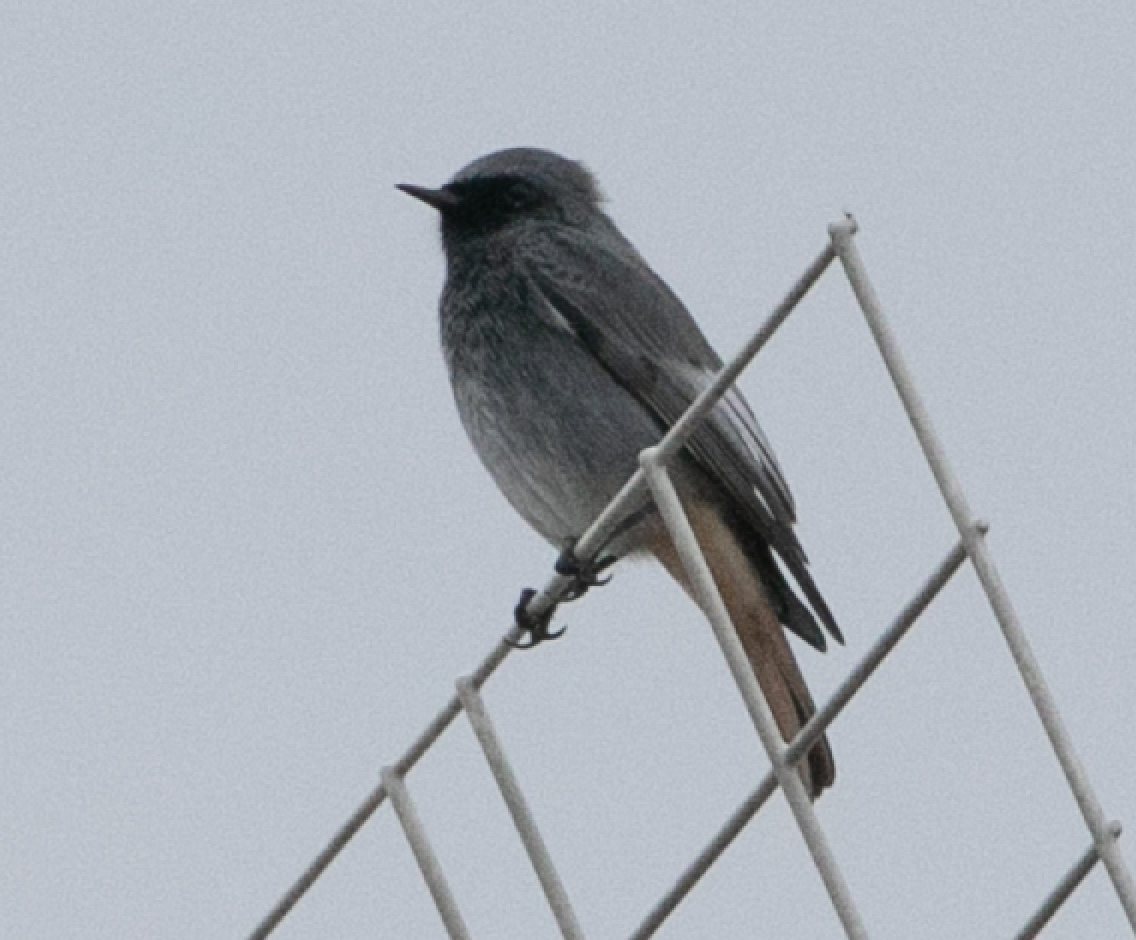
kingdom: Animalia
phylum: Chordata
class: Aves
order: Passeriformes
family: Muscicapidae
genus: Phoenicurus
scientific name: Phoenicurus ochruros
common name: Black redstart
